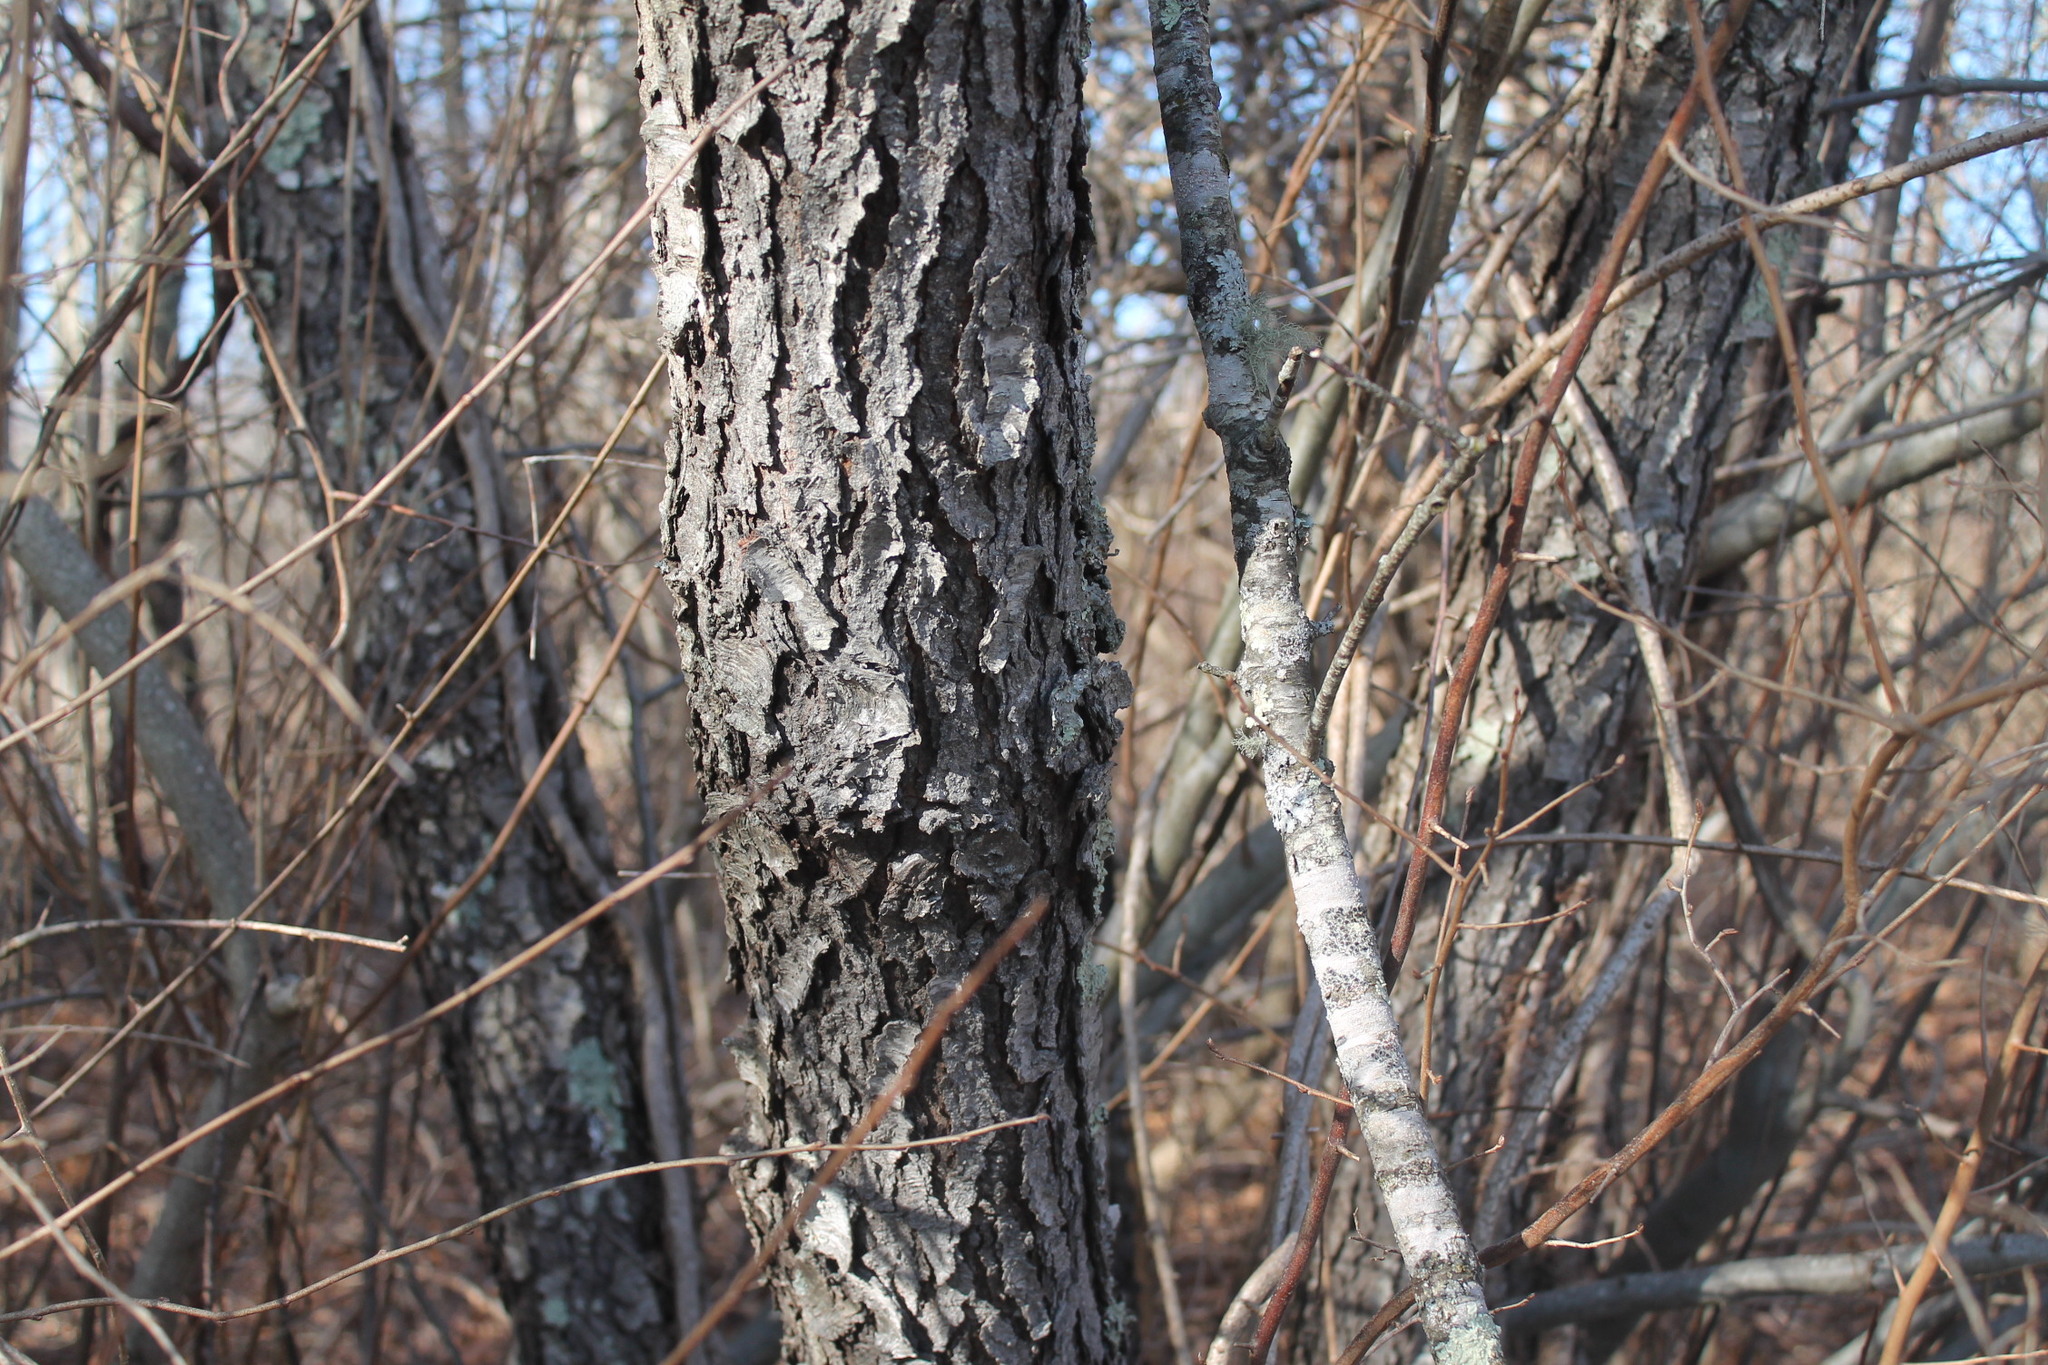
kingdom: Plantae
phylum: Tracheophyta
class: Magnoliopsida
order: Rosales
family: Rosaceae
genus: Prunus
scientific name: Prunus serotina
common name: Black cherry
